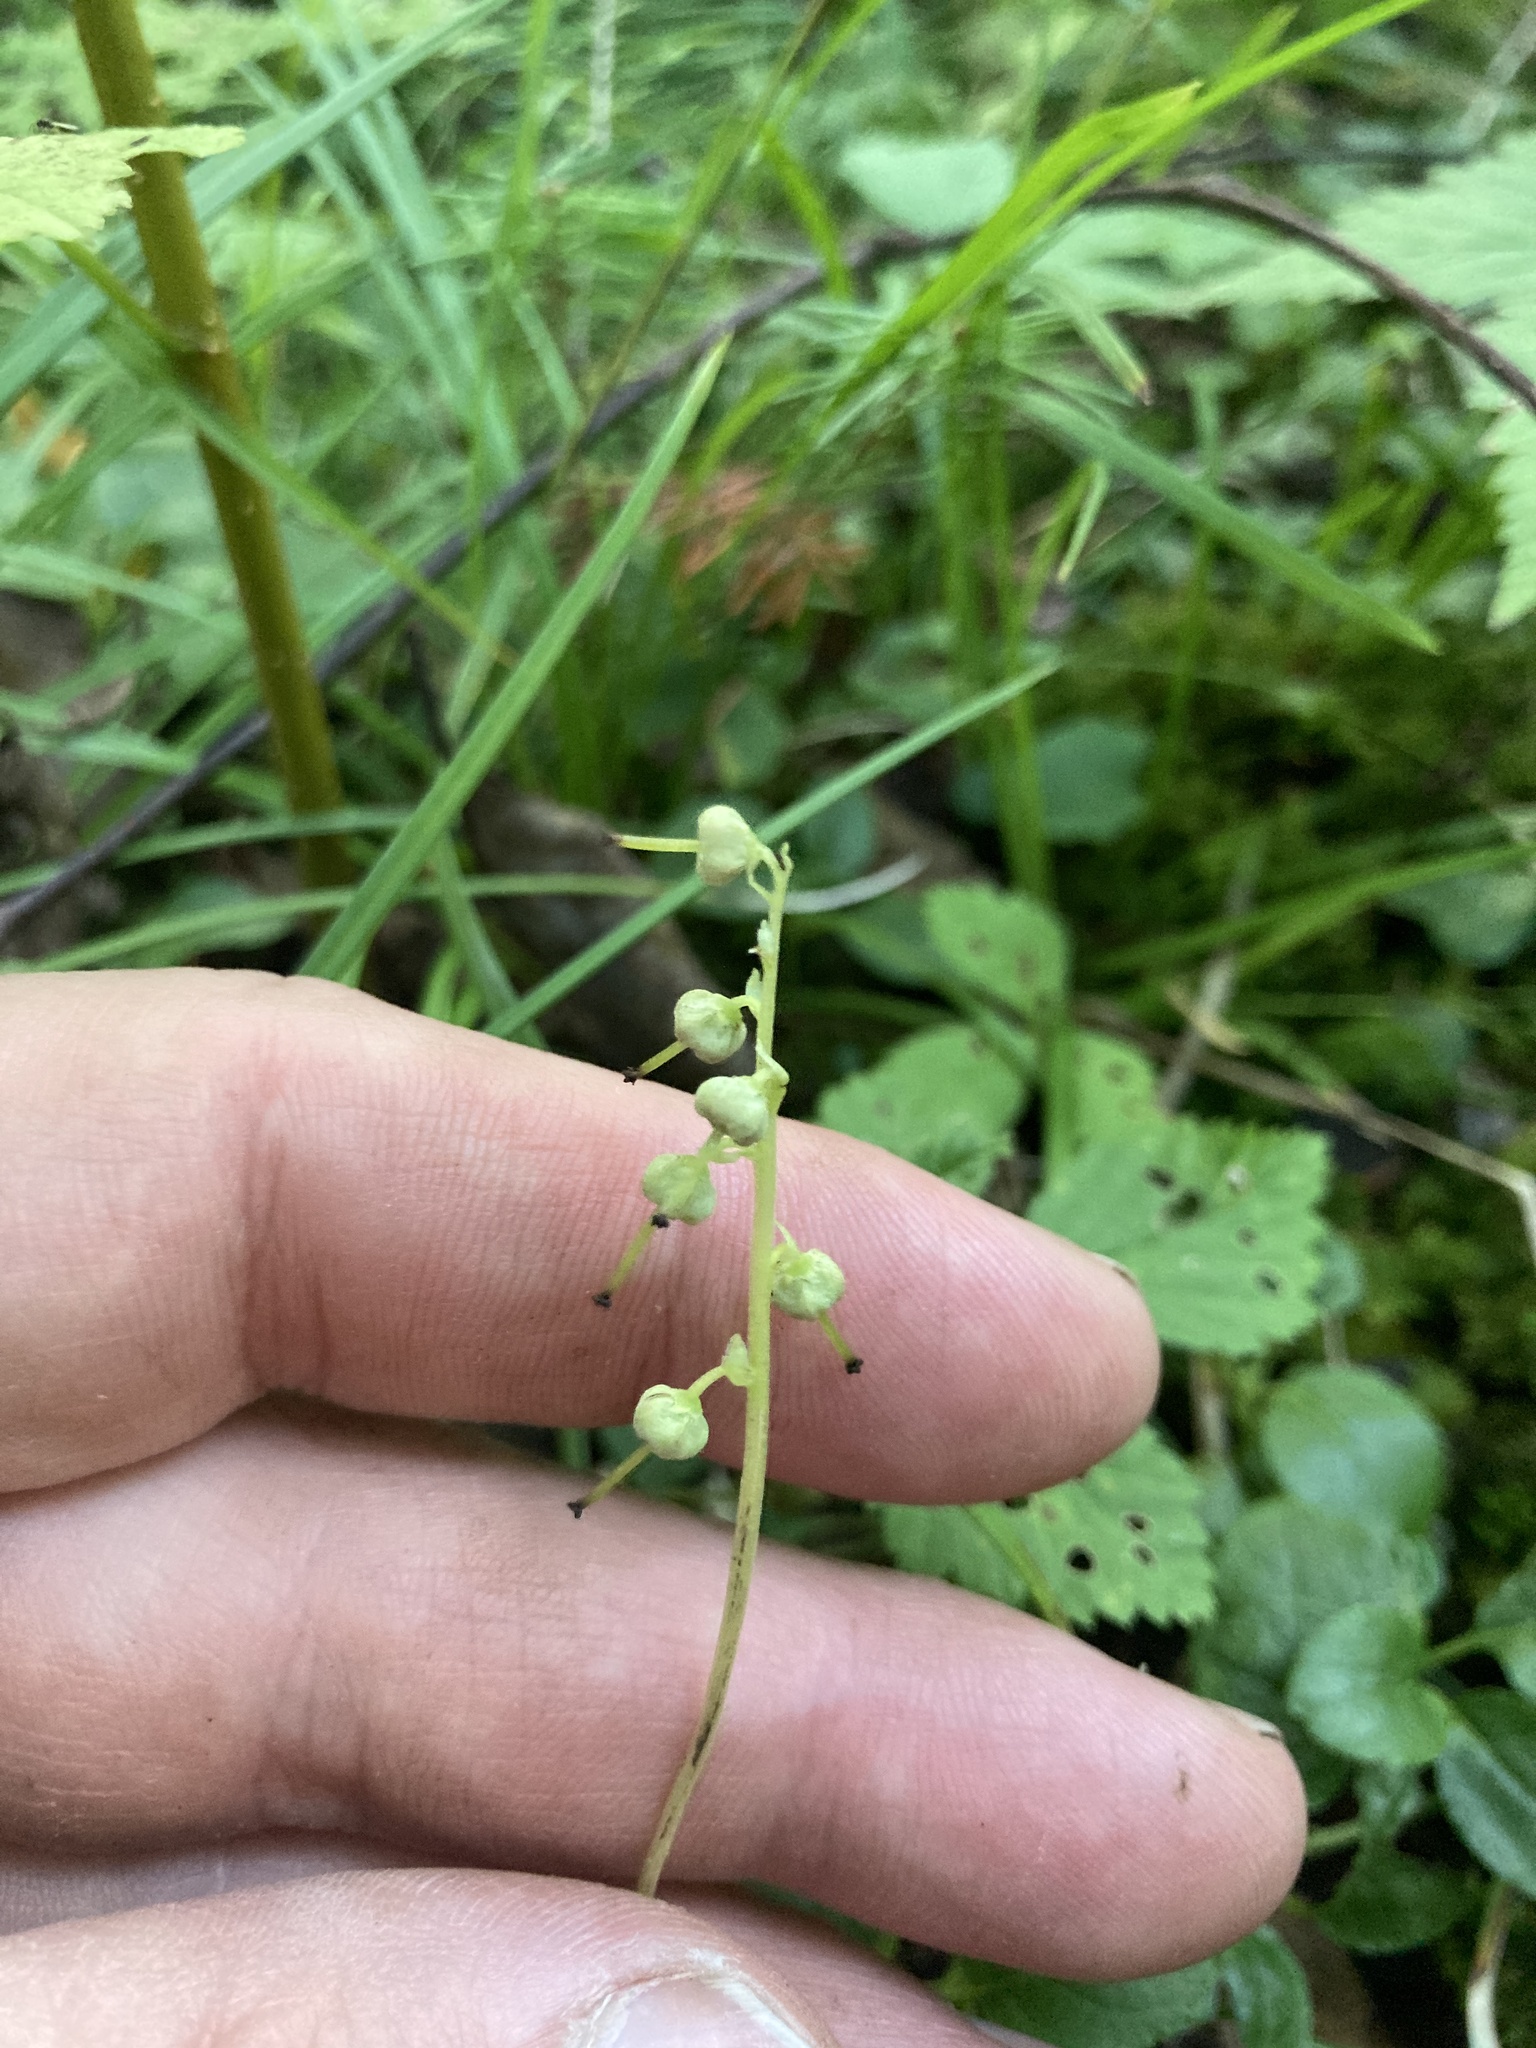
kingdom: Plantae
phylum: Tracheophyta
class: Magnoliopsida
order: Ericales
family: Ericaceae
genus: Orthilia
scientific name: Orthilia secunda
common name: One-sided orthilia
